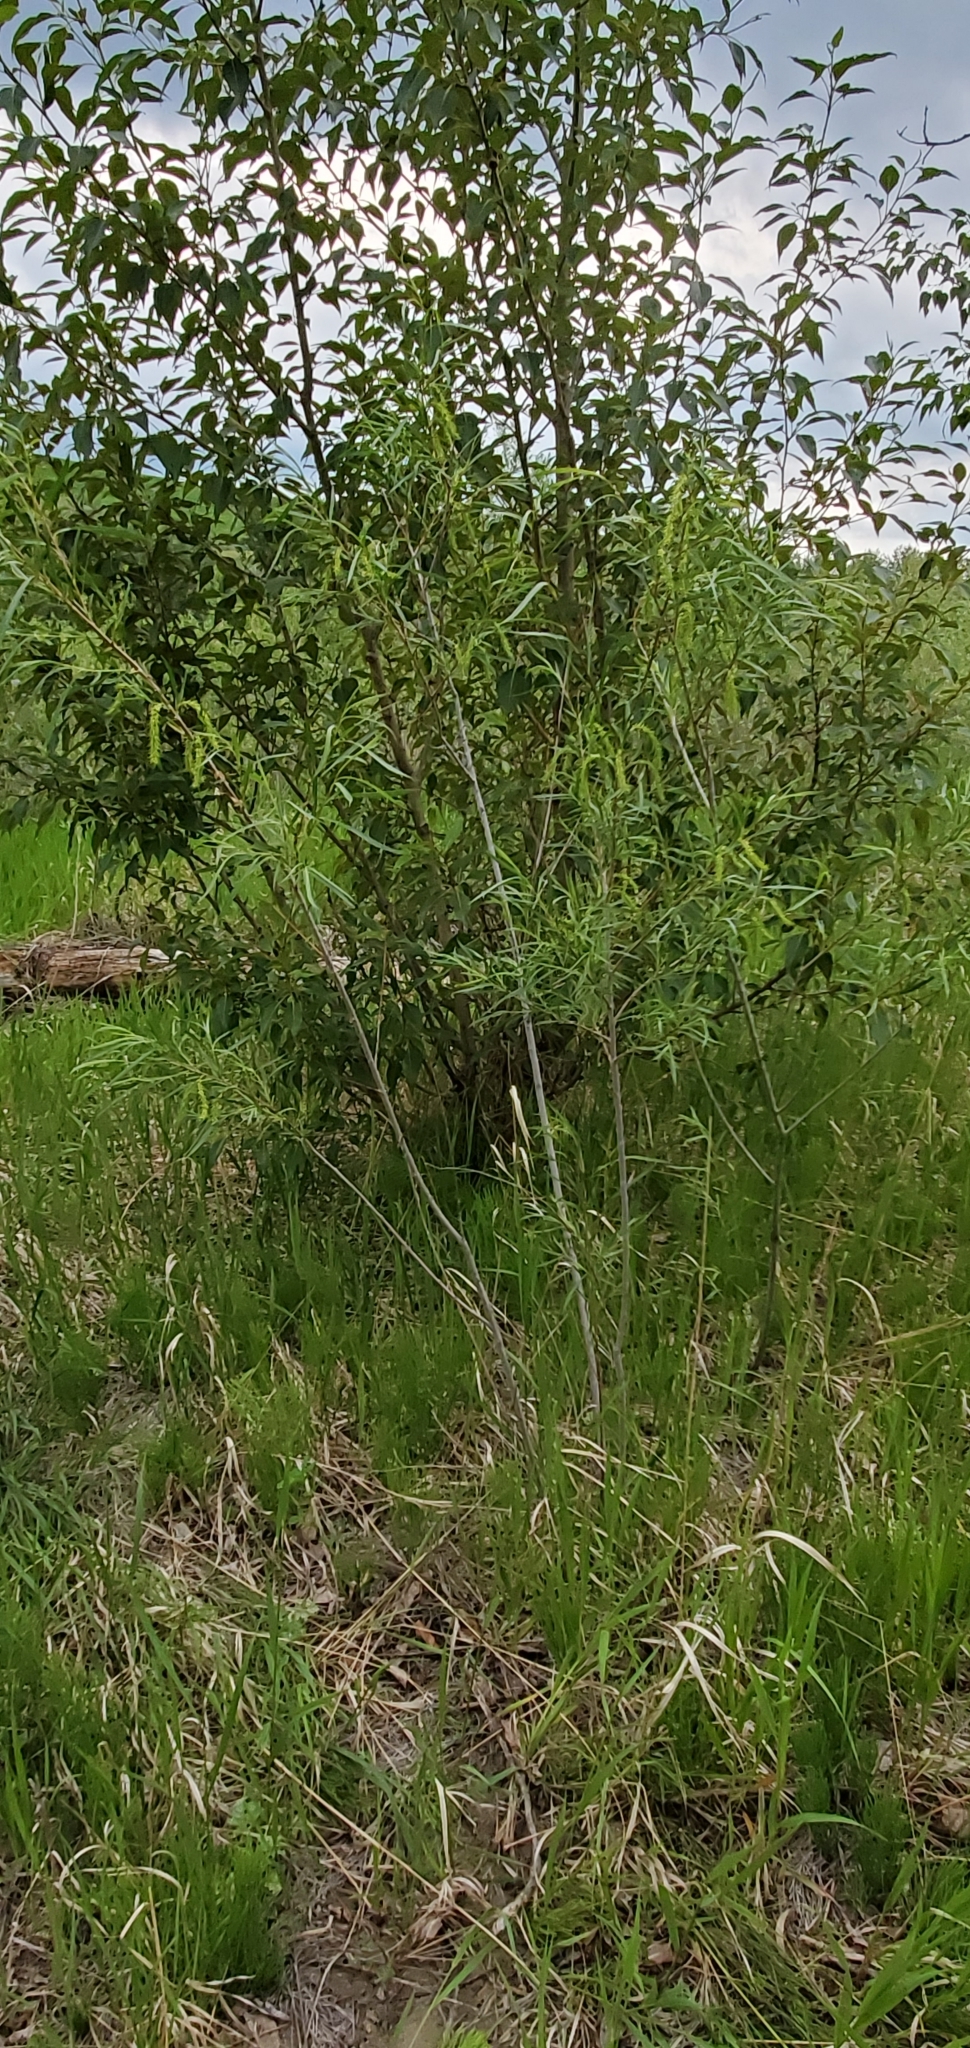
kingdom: Plantae
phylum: Tracheophyta
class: Magnoliopsida
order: Malpighiales
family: Salicaceae
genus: Salix
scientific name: Salix interior
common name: Sandbar willow
